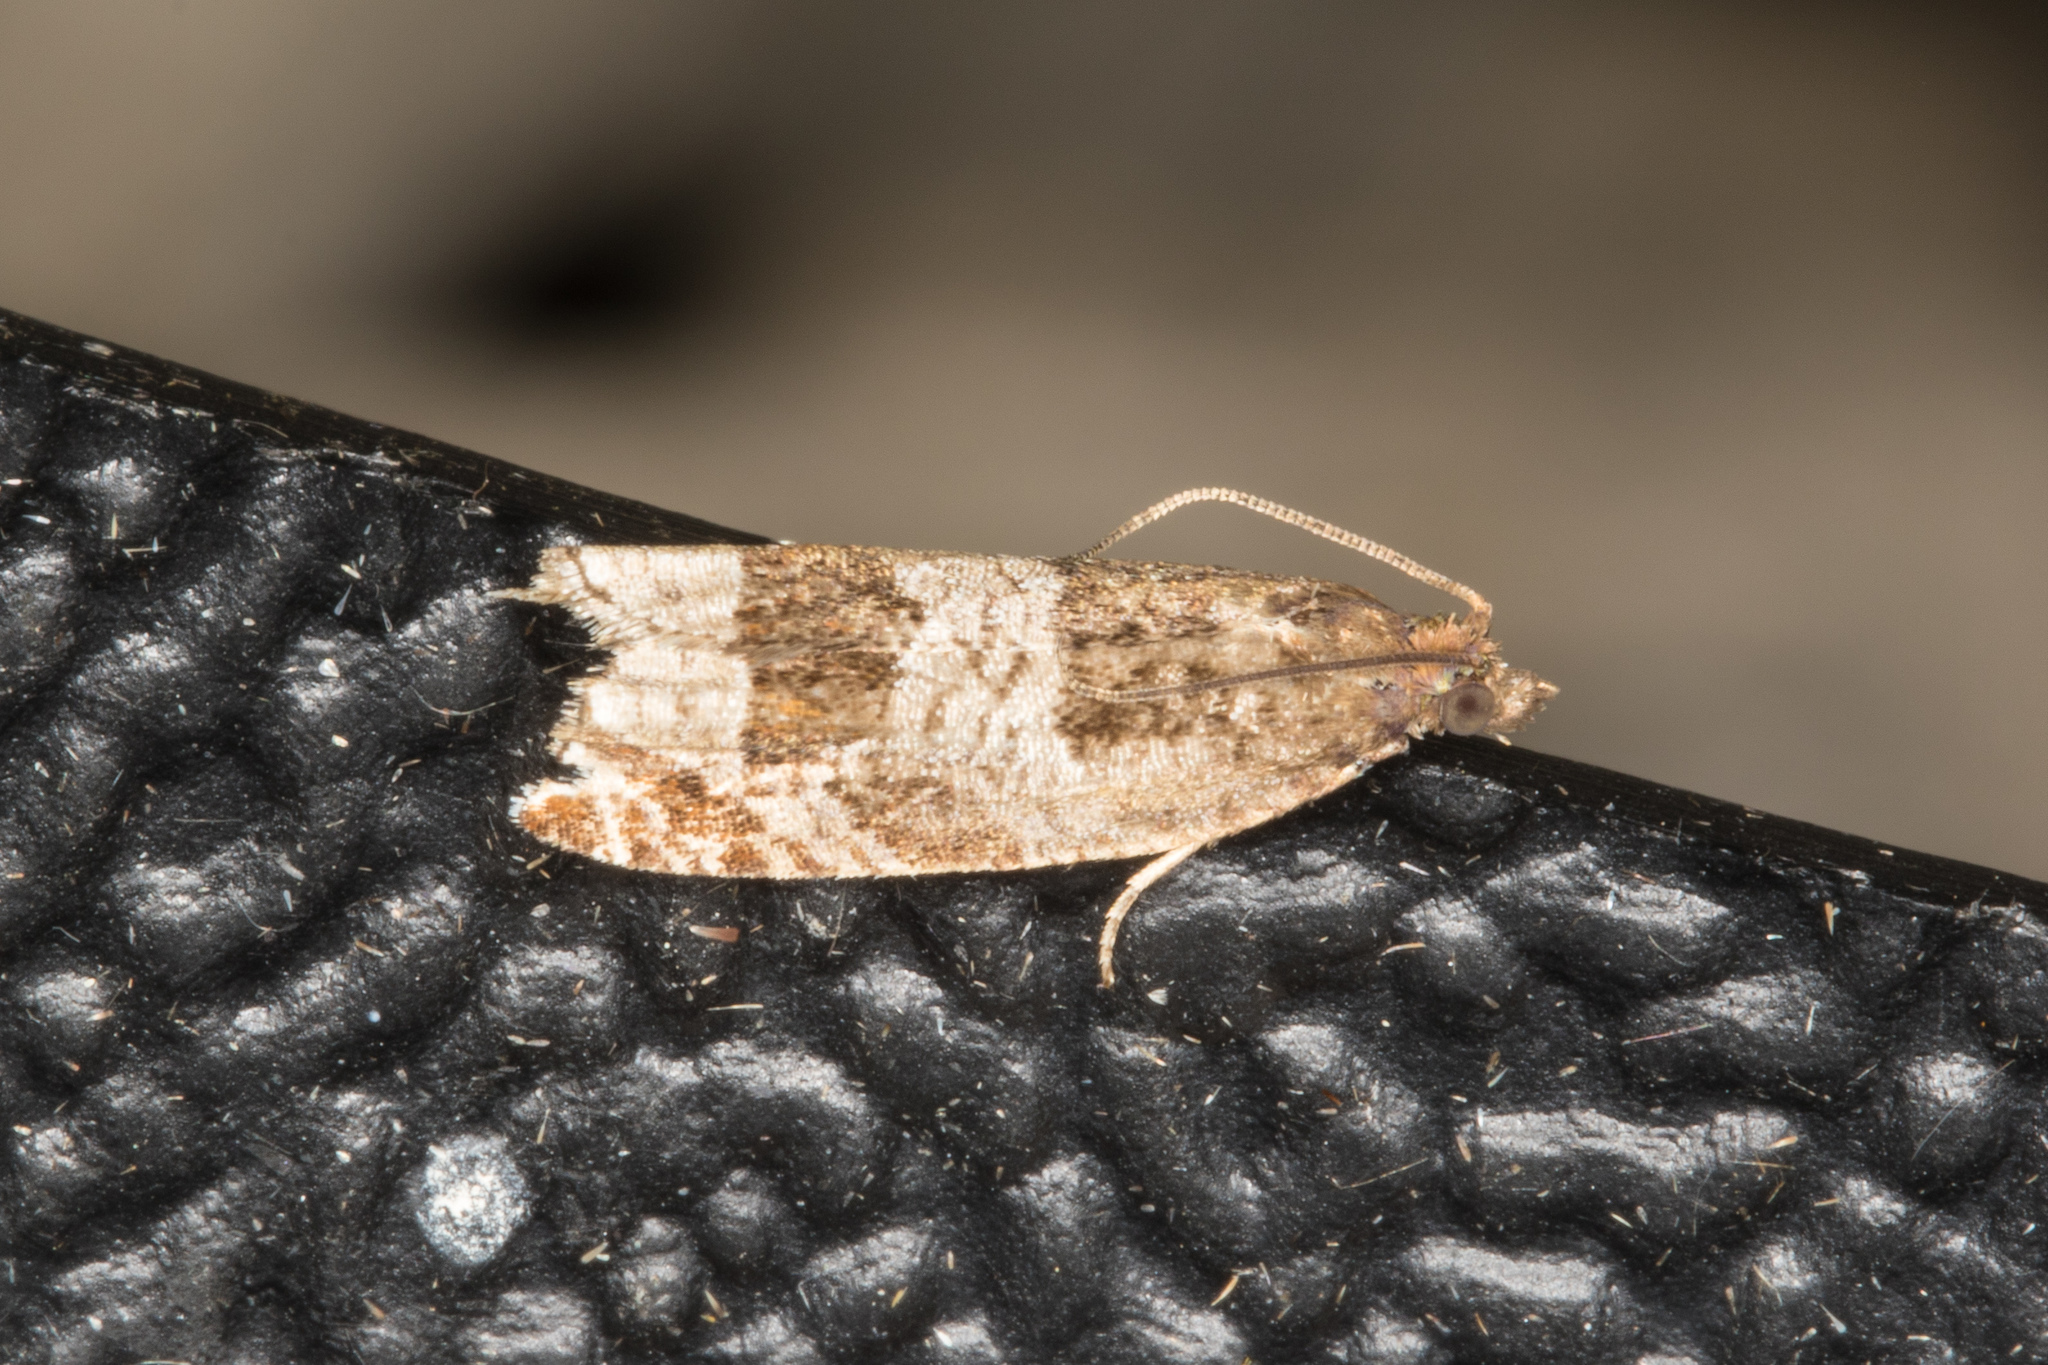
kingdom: Animalia
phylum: Arthropoda
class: Insecta
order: Lepidoptera
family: Tortricidae
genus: Ancylis
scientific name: Ancylis achatana
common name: Triangle-marked roller
